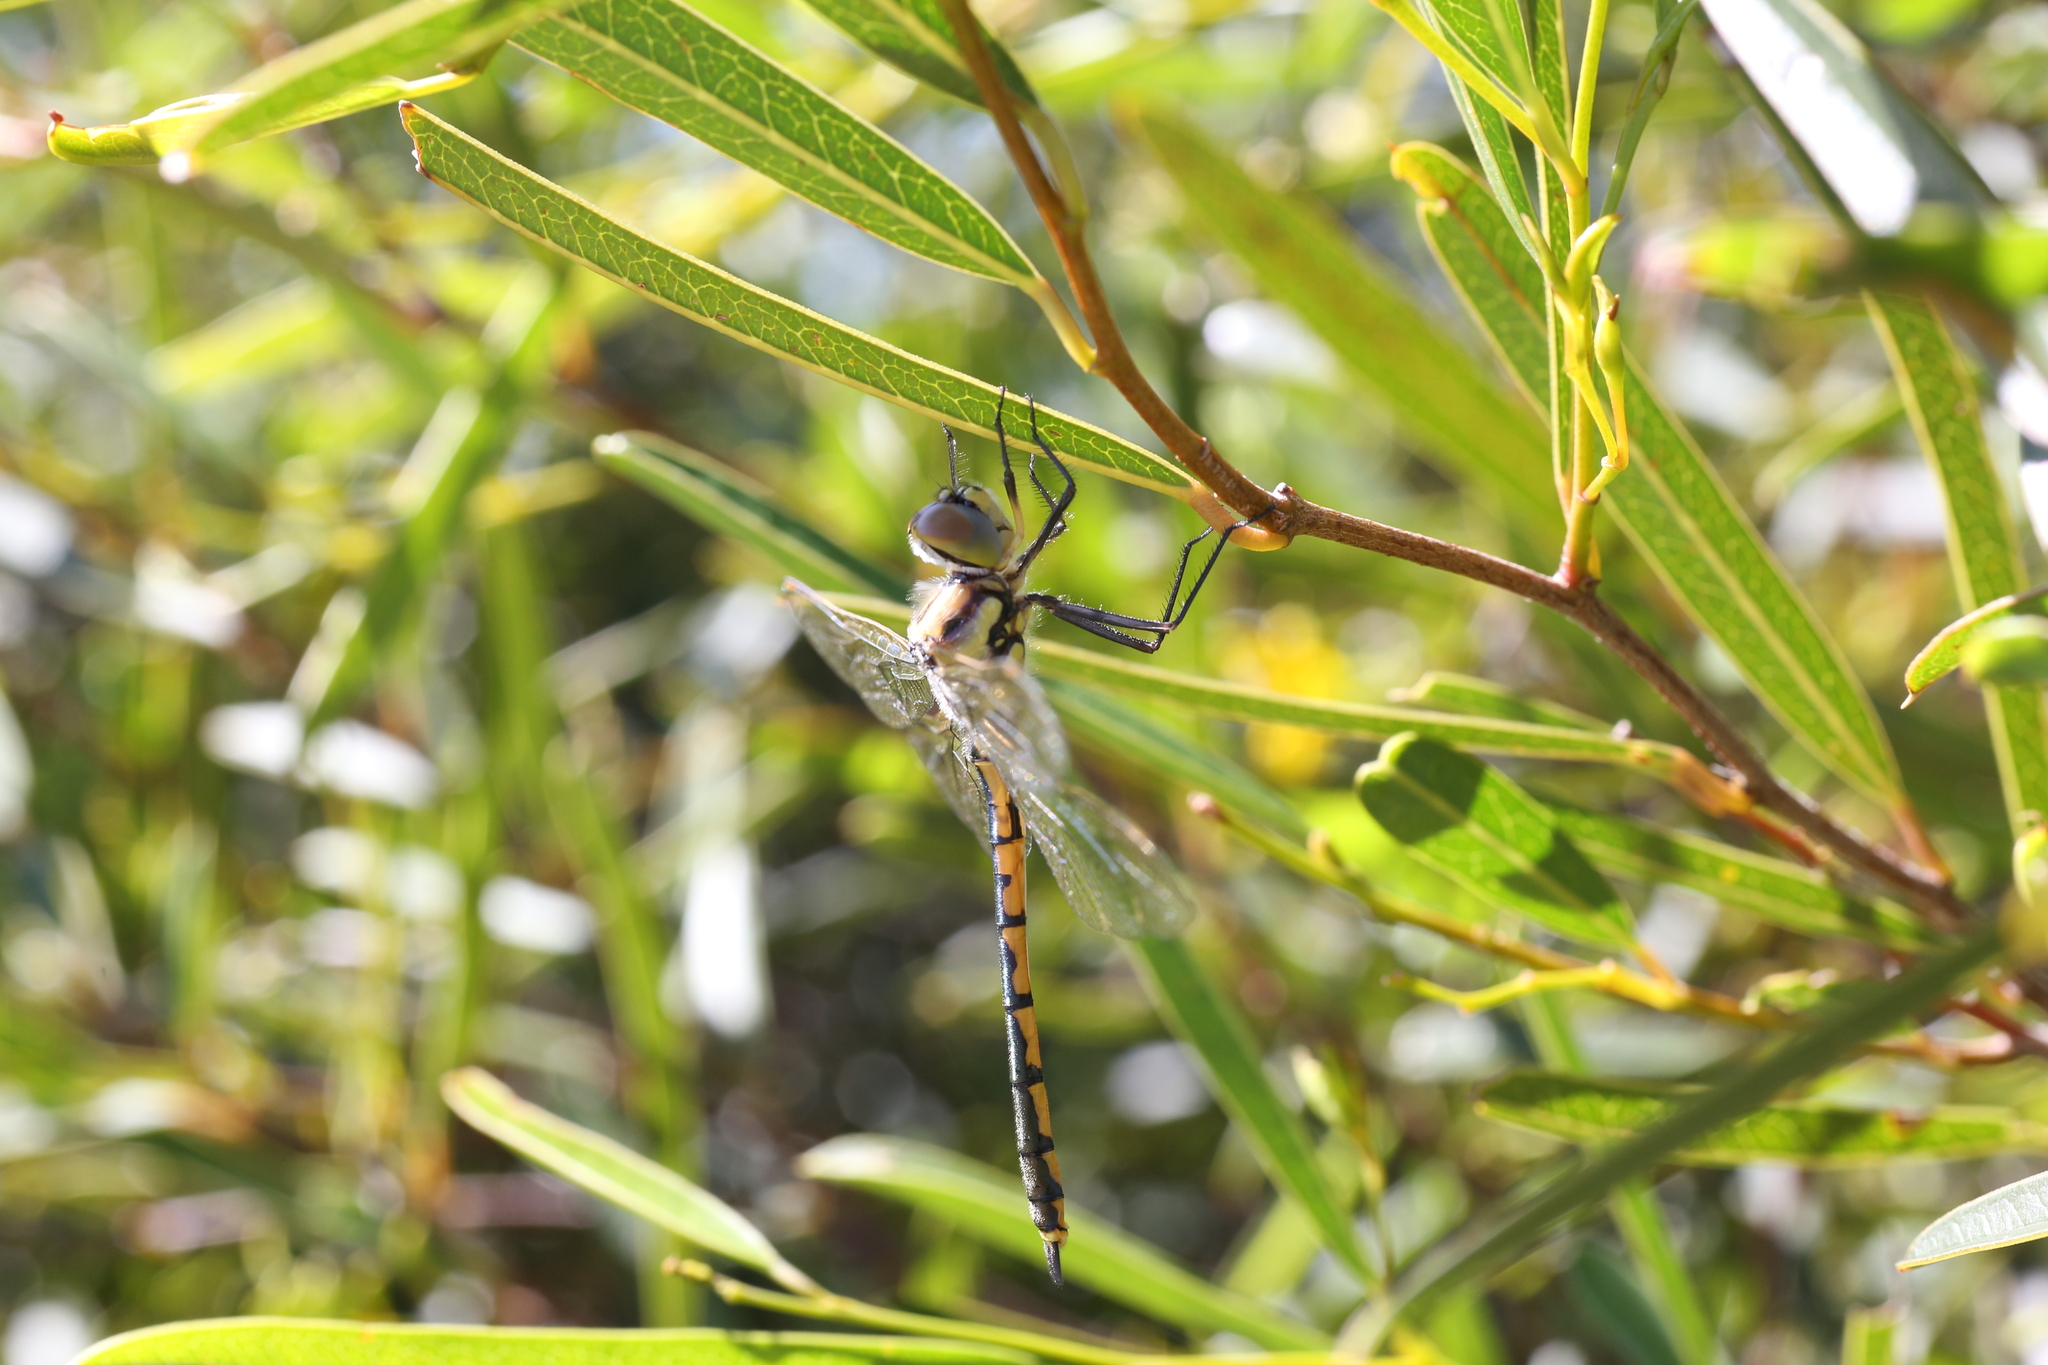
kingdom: Animalia
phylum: Arthropoda
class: Insecta
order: Odonata
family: Corduliidae
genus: Hemicordulia
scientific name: Hemicordulia tau
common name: Tau emerald
